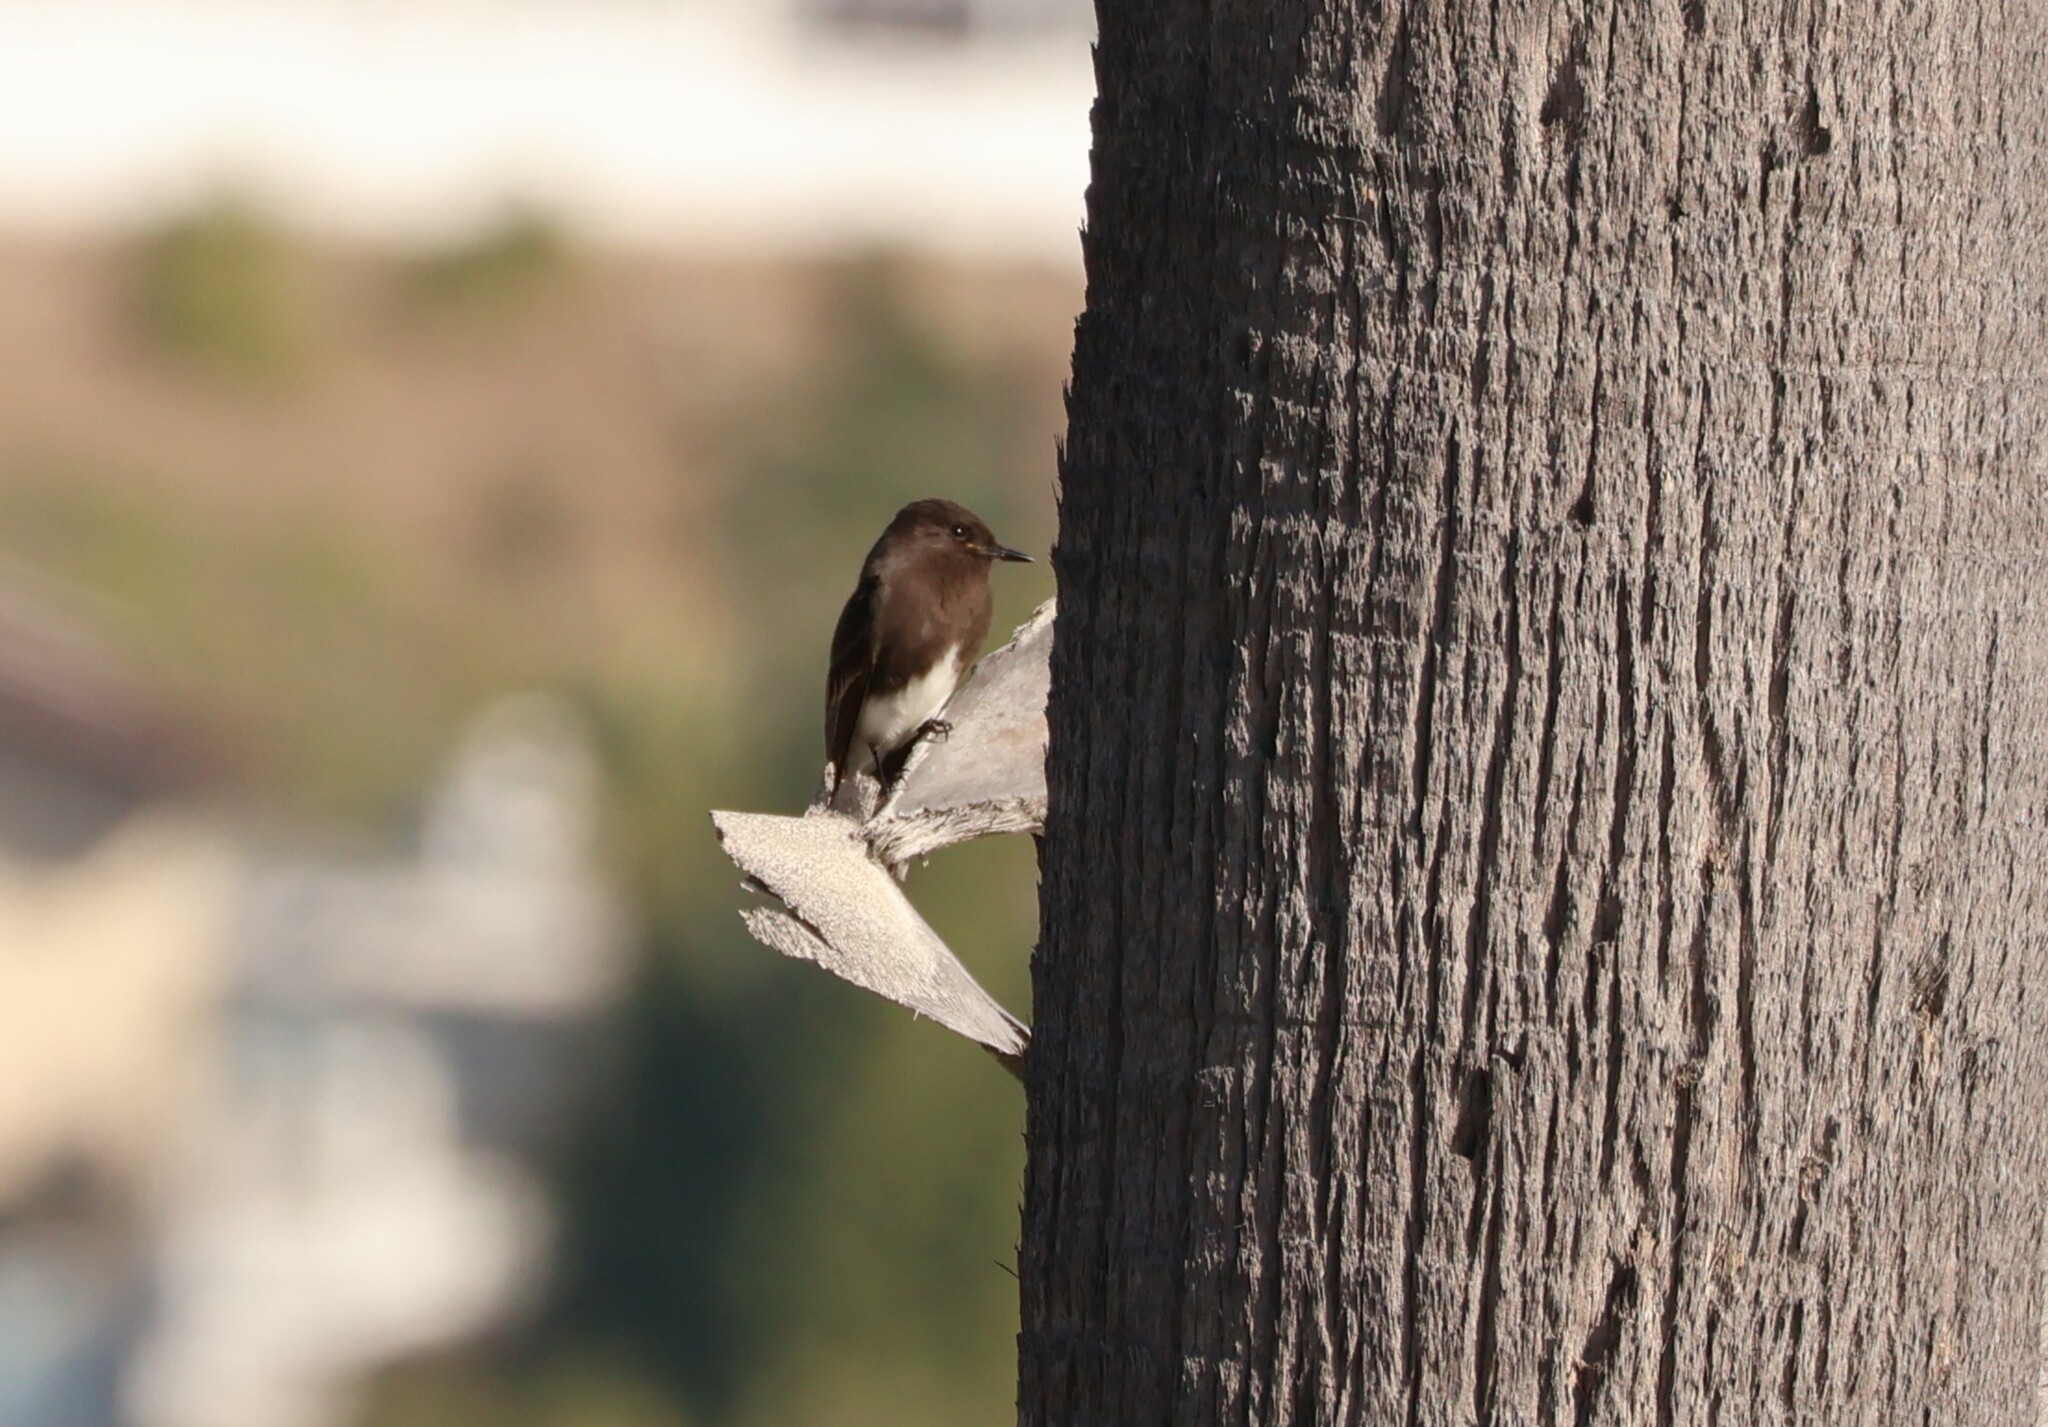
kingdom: Animalia
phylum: Chordata
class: Aves
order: Passeriformes
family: Tyrannidae
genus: Sayornis
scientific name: Sayornis nigricans
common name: Black phoebe
